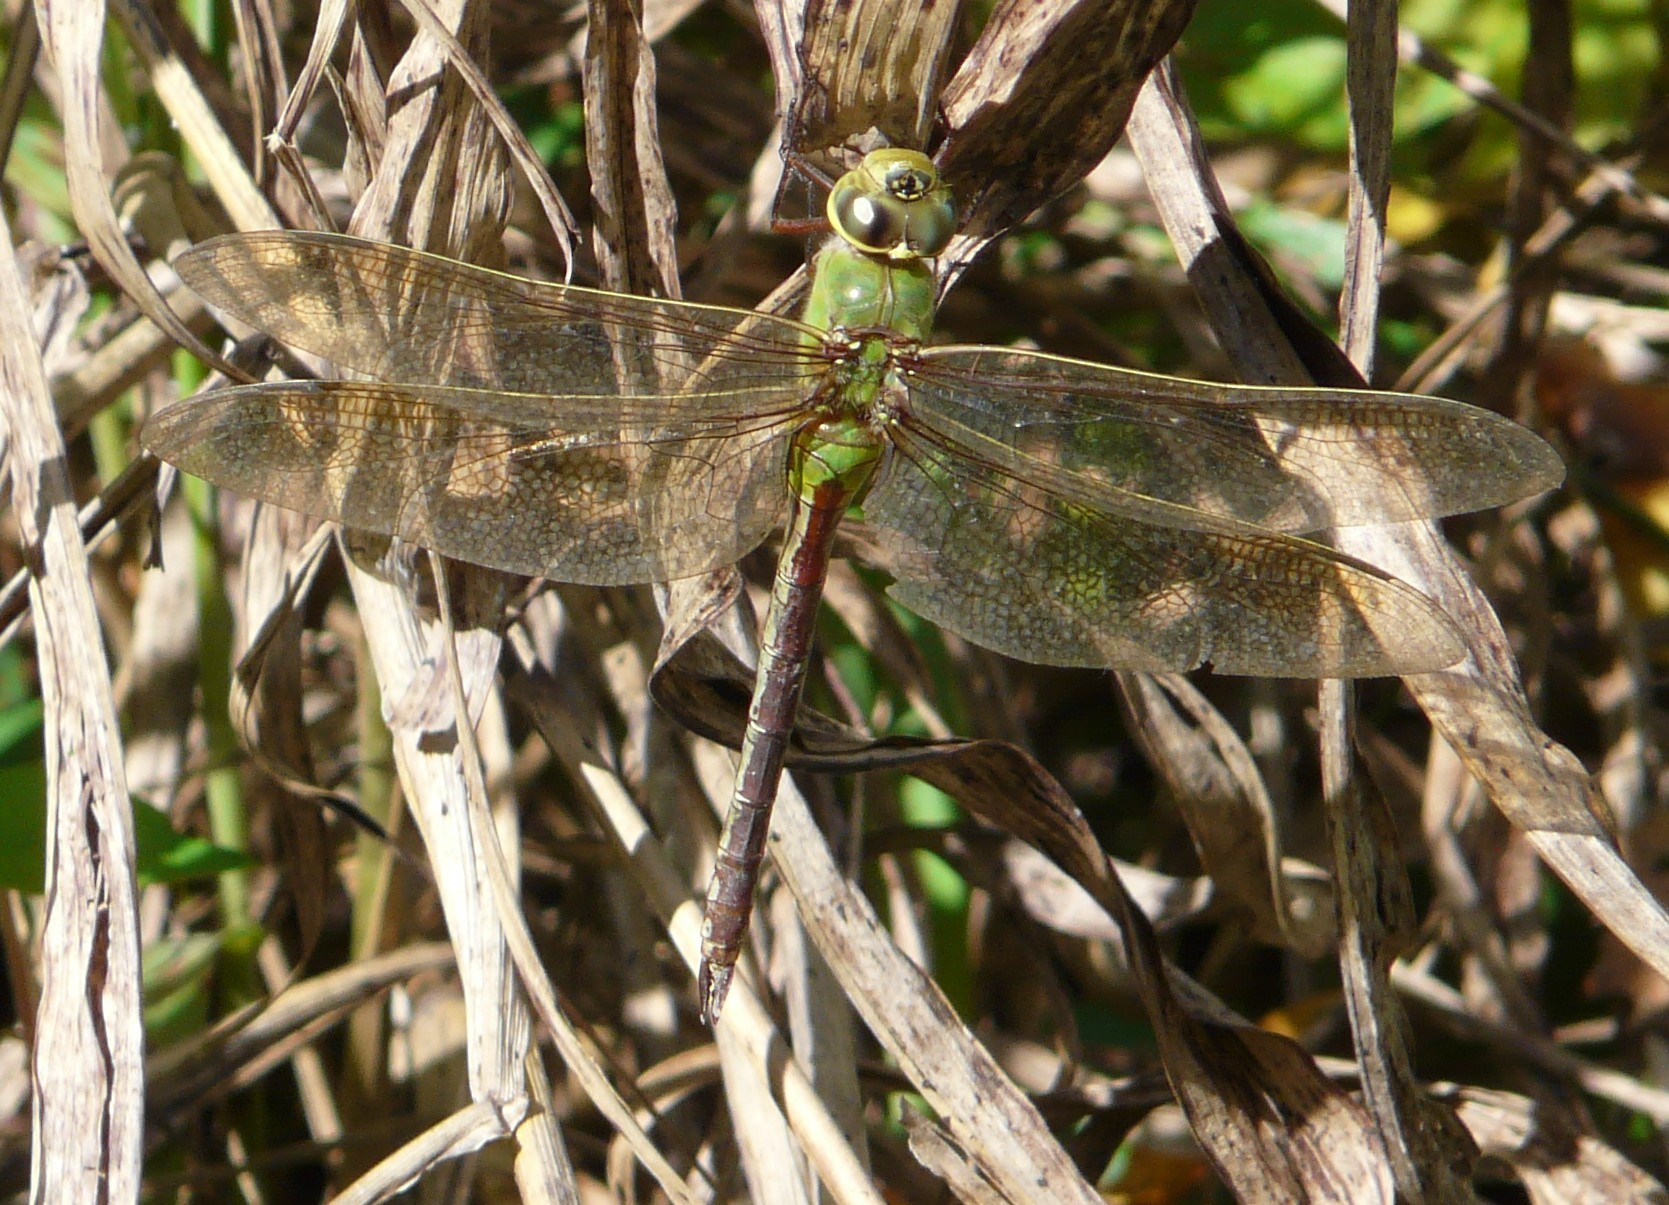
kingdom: Animalia
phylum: Arthropoda
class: Insecta
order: Odonata
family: Aeshnidae
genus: Anax
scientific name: Anax junius
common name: Common green darner
